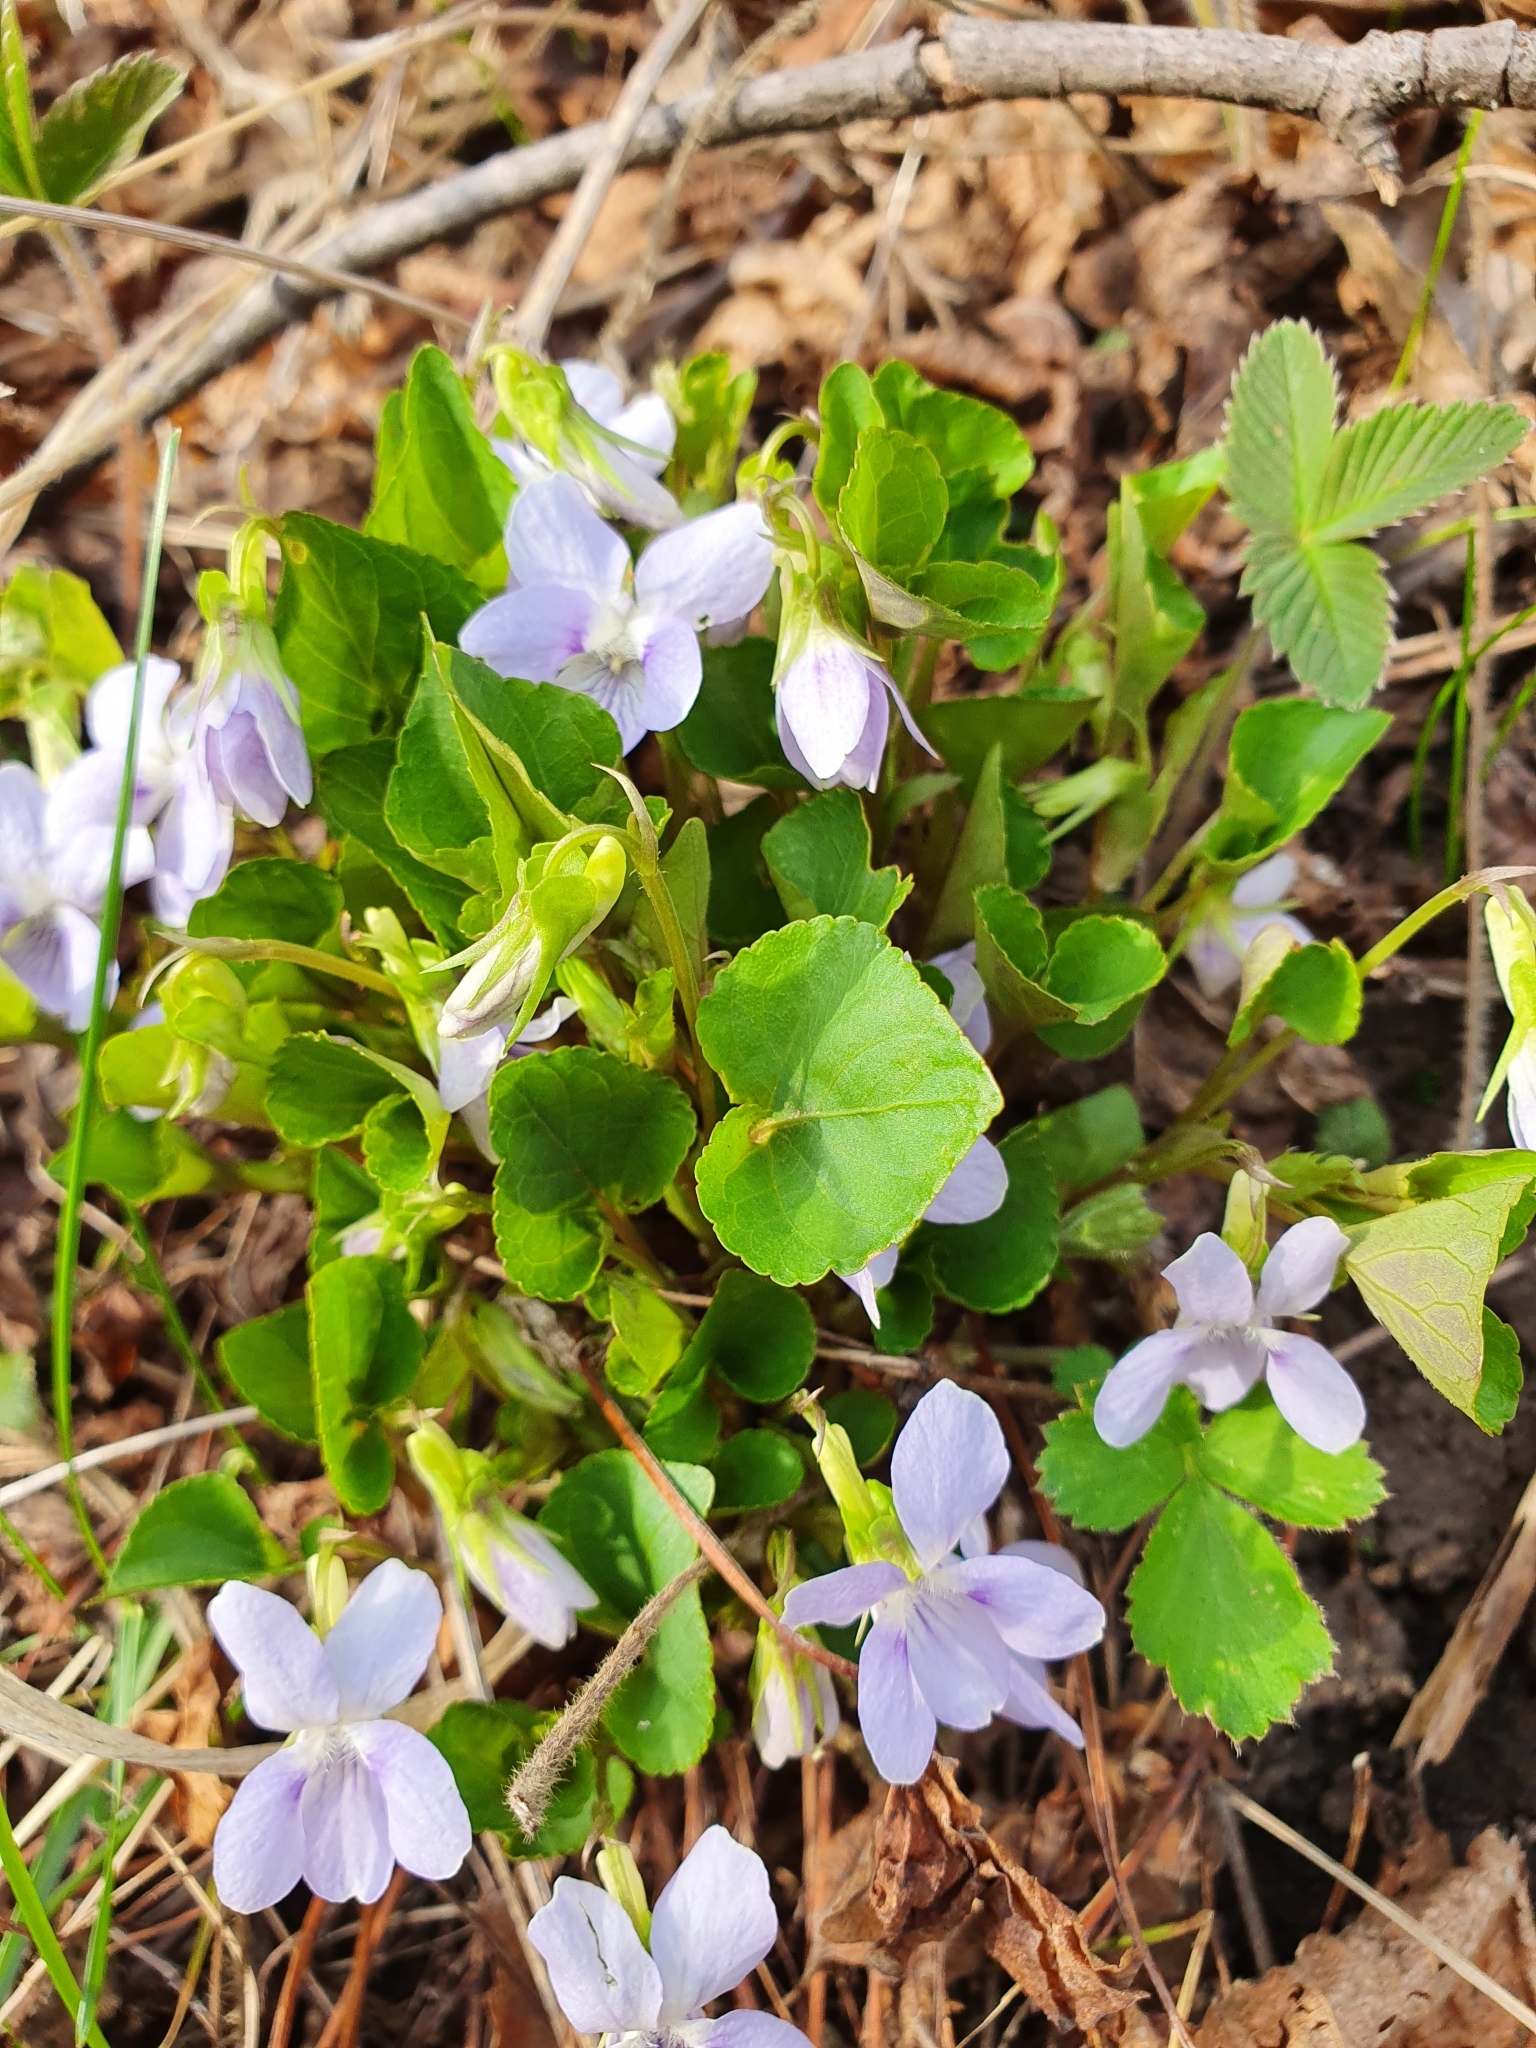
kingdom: Plantae
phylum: Tracheophyta
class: Magnoliopsida
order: Malpighiales
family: Violaceae
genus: Viola
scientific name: Viola rupestris
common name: Teesdale violet
